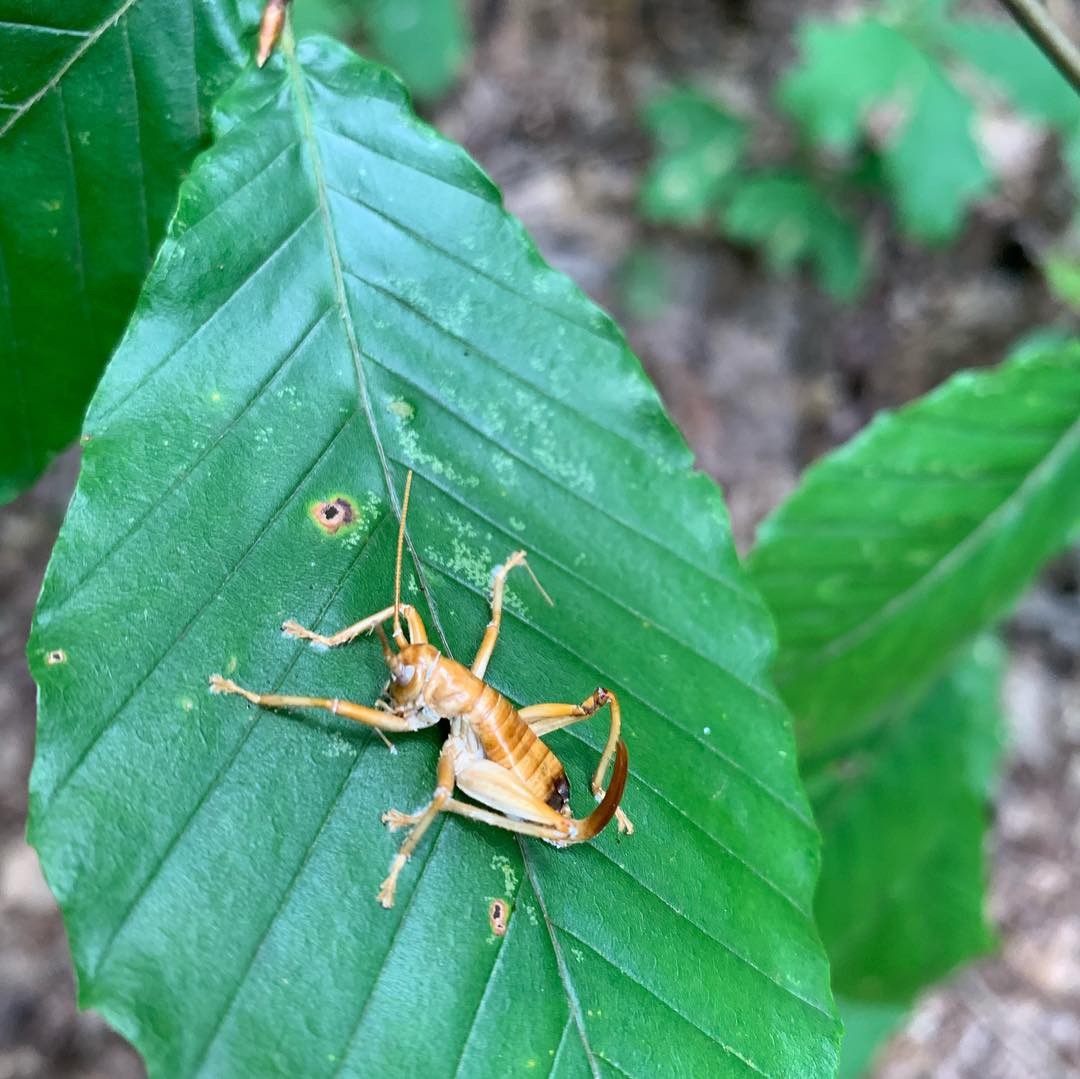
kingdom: Animalia
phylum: Arthropoda
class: Insecta
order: Orthoptera
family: Gryllacrididae
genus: Camptonotus
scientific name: Camptonotus carolinensis
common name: Carolina leaf-roller
